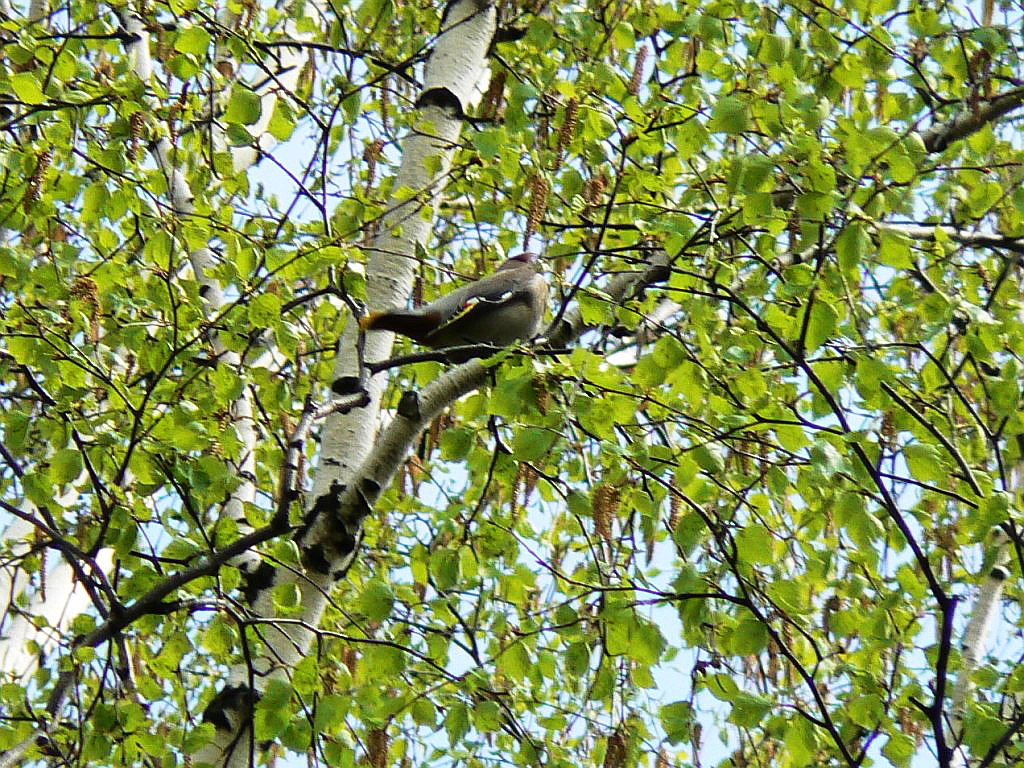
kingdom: Animalia
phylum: Chordata
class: Aves
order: Passeriformes
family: Bombycillidae
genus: Bombycilla
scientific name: Bombycilla garrulus
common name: Bohemian waxwing
